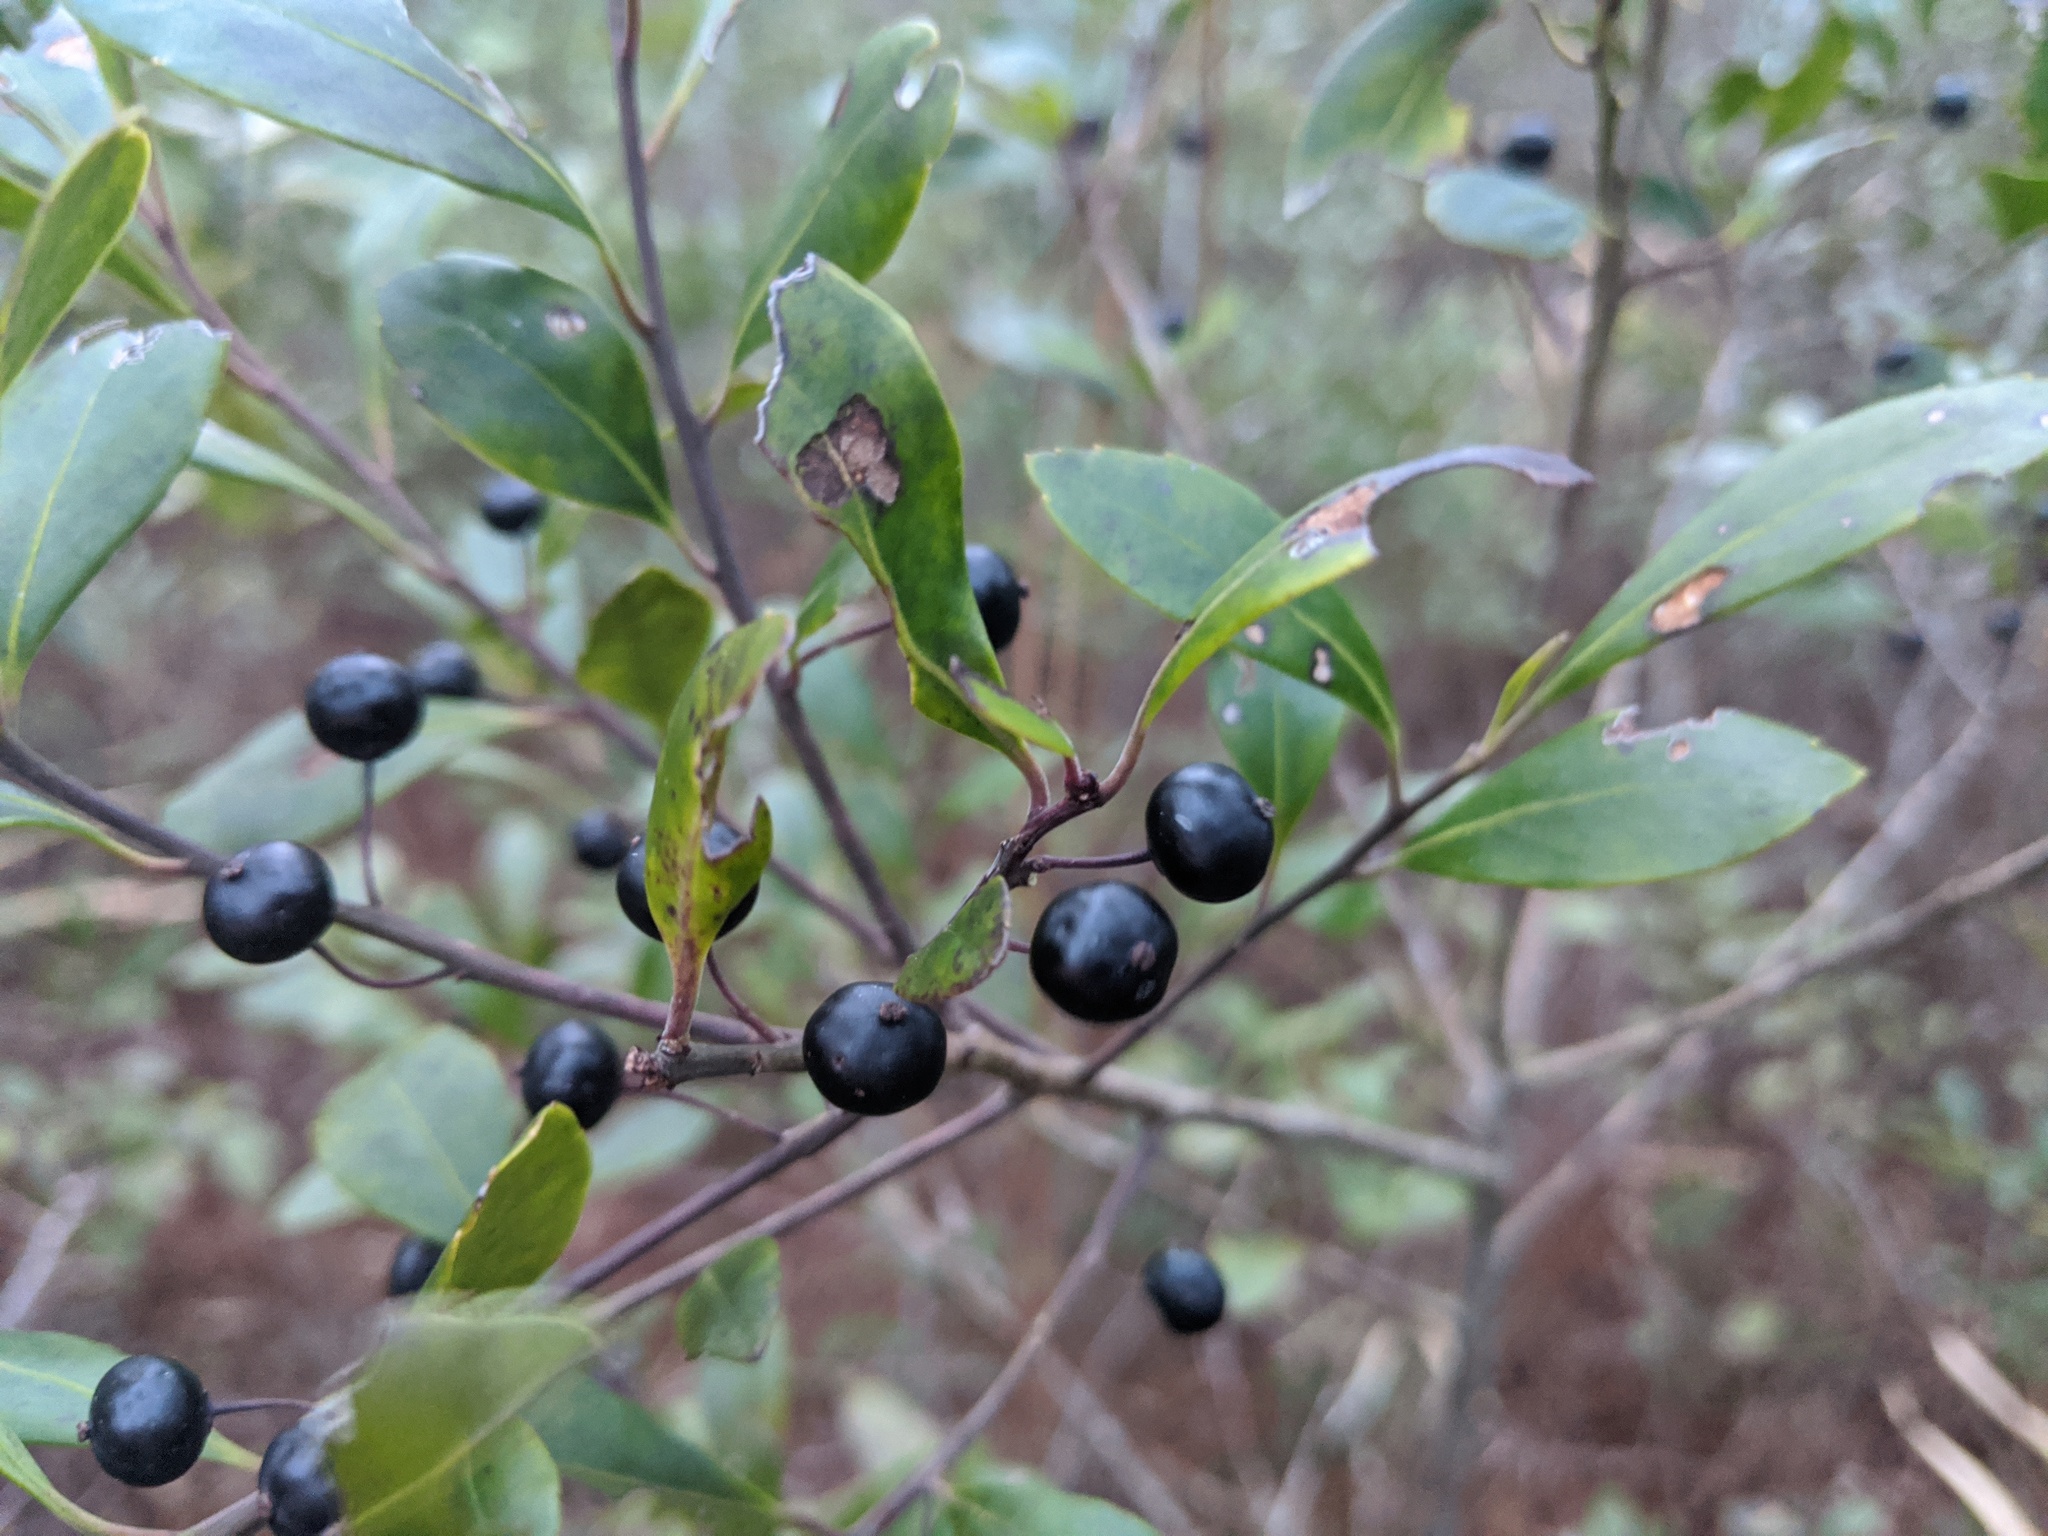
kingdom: Plantae
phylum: Tracheophyta
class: Magnoliopsida
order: Aquifoliales
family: Aquifoliaceae
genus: Ilex
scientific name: Ilex glabra
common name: Bitter gallberry
